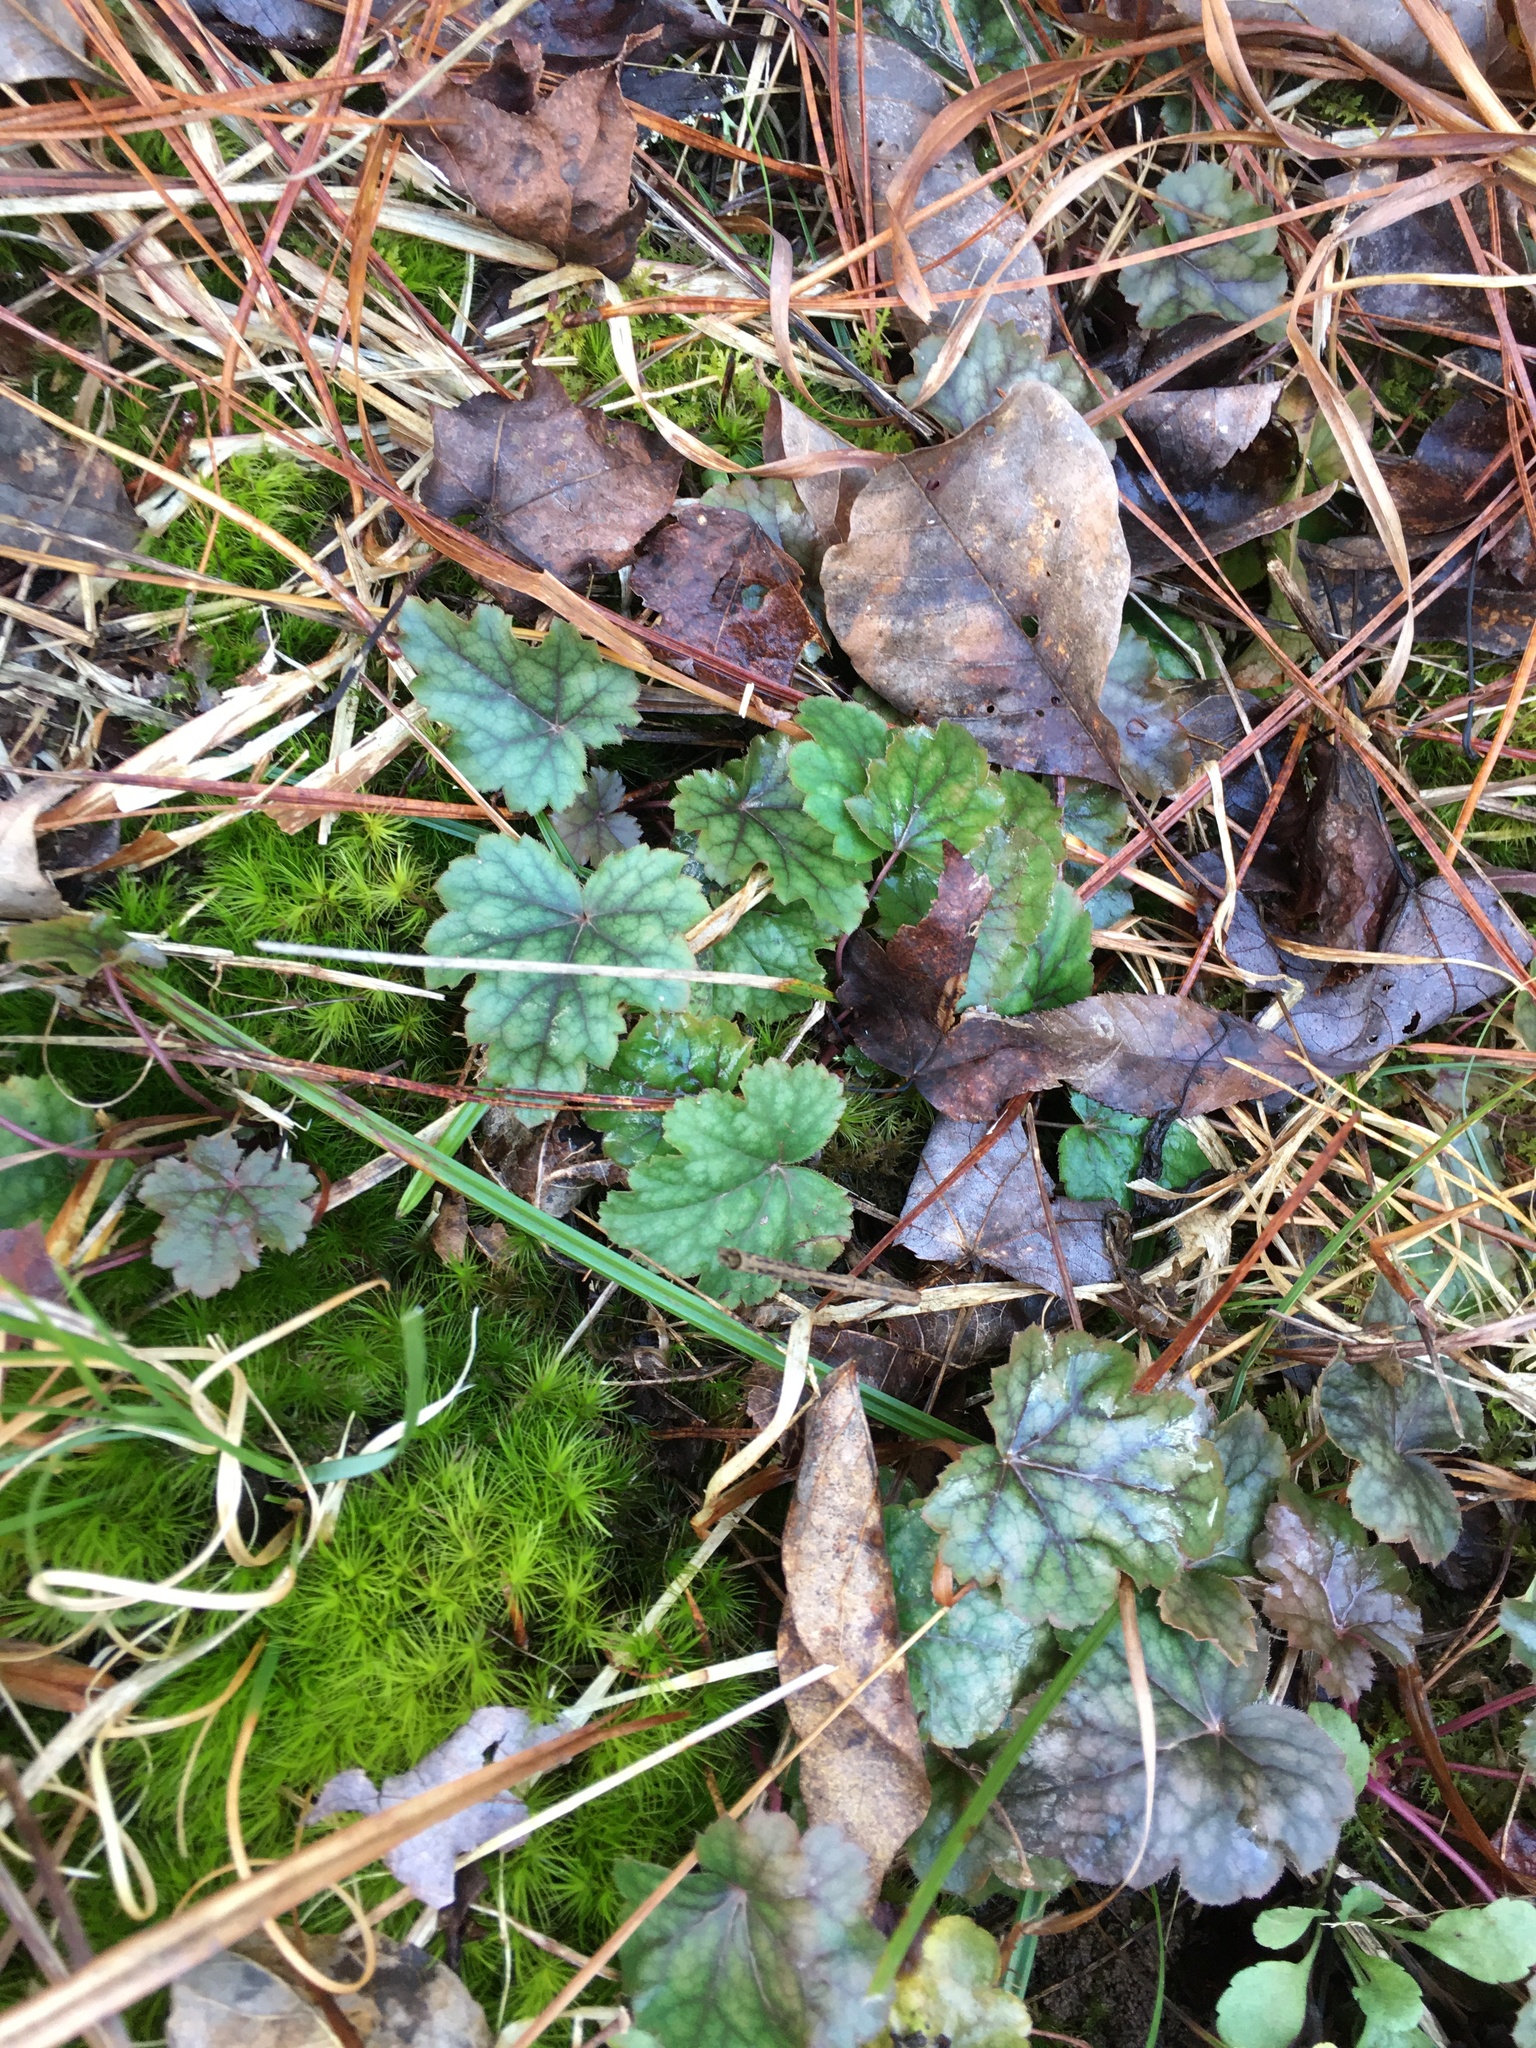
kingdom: Plantae
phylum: Tracheophyta
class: Magnoliopsida
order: Saxifragales
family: Saxifragaceae
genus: Heuchera
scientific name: Heuchera caroliniana
